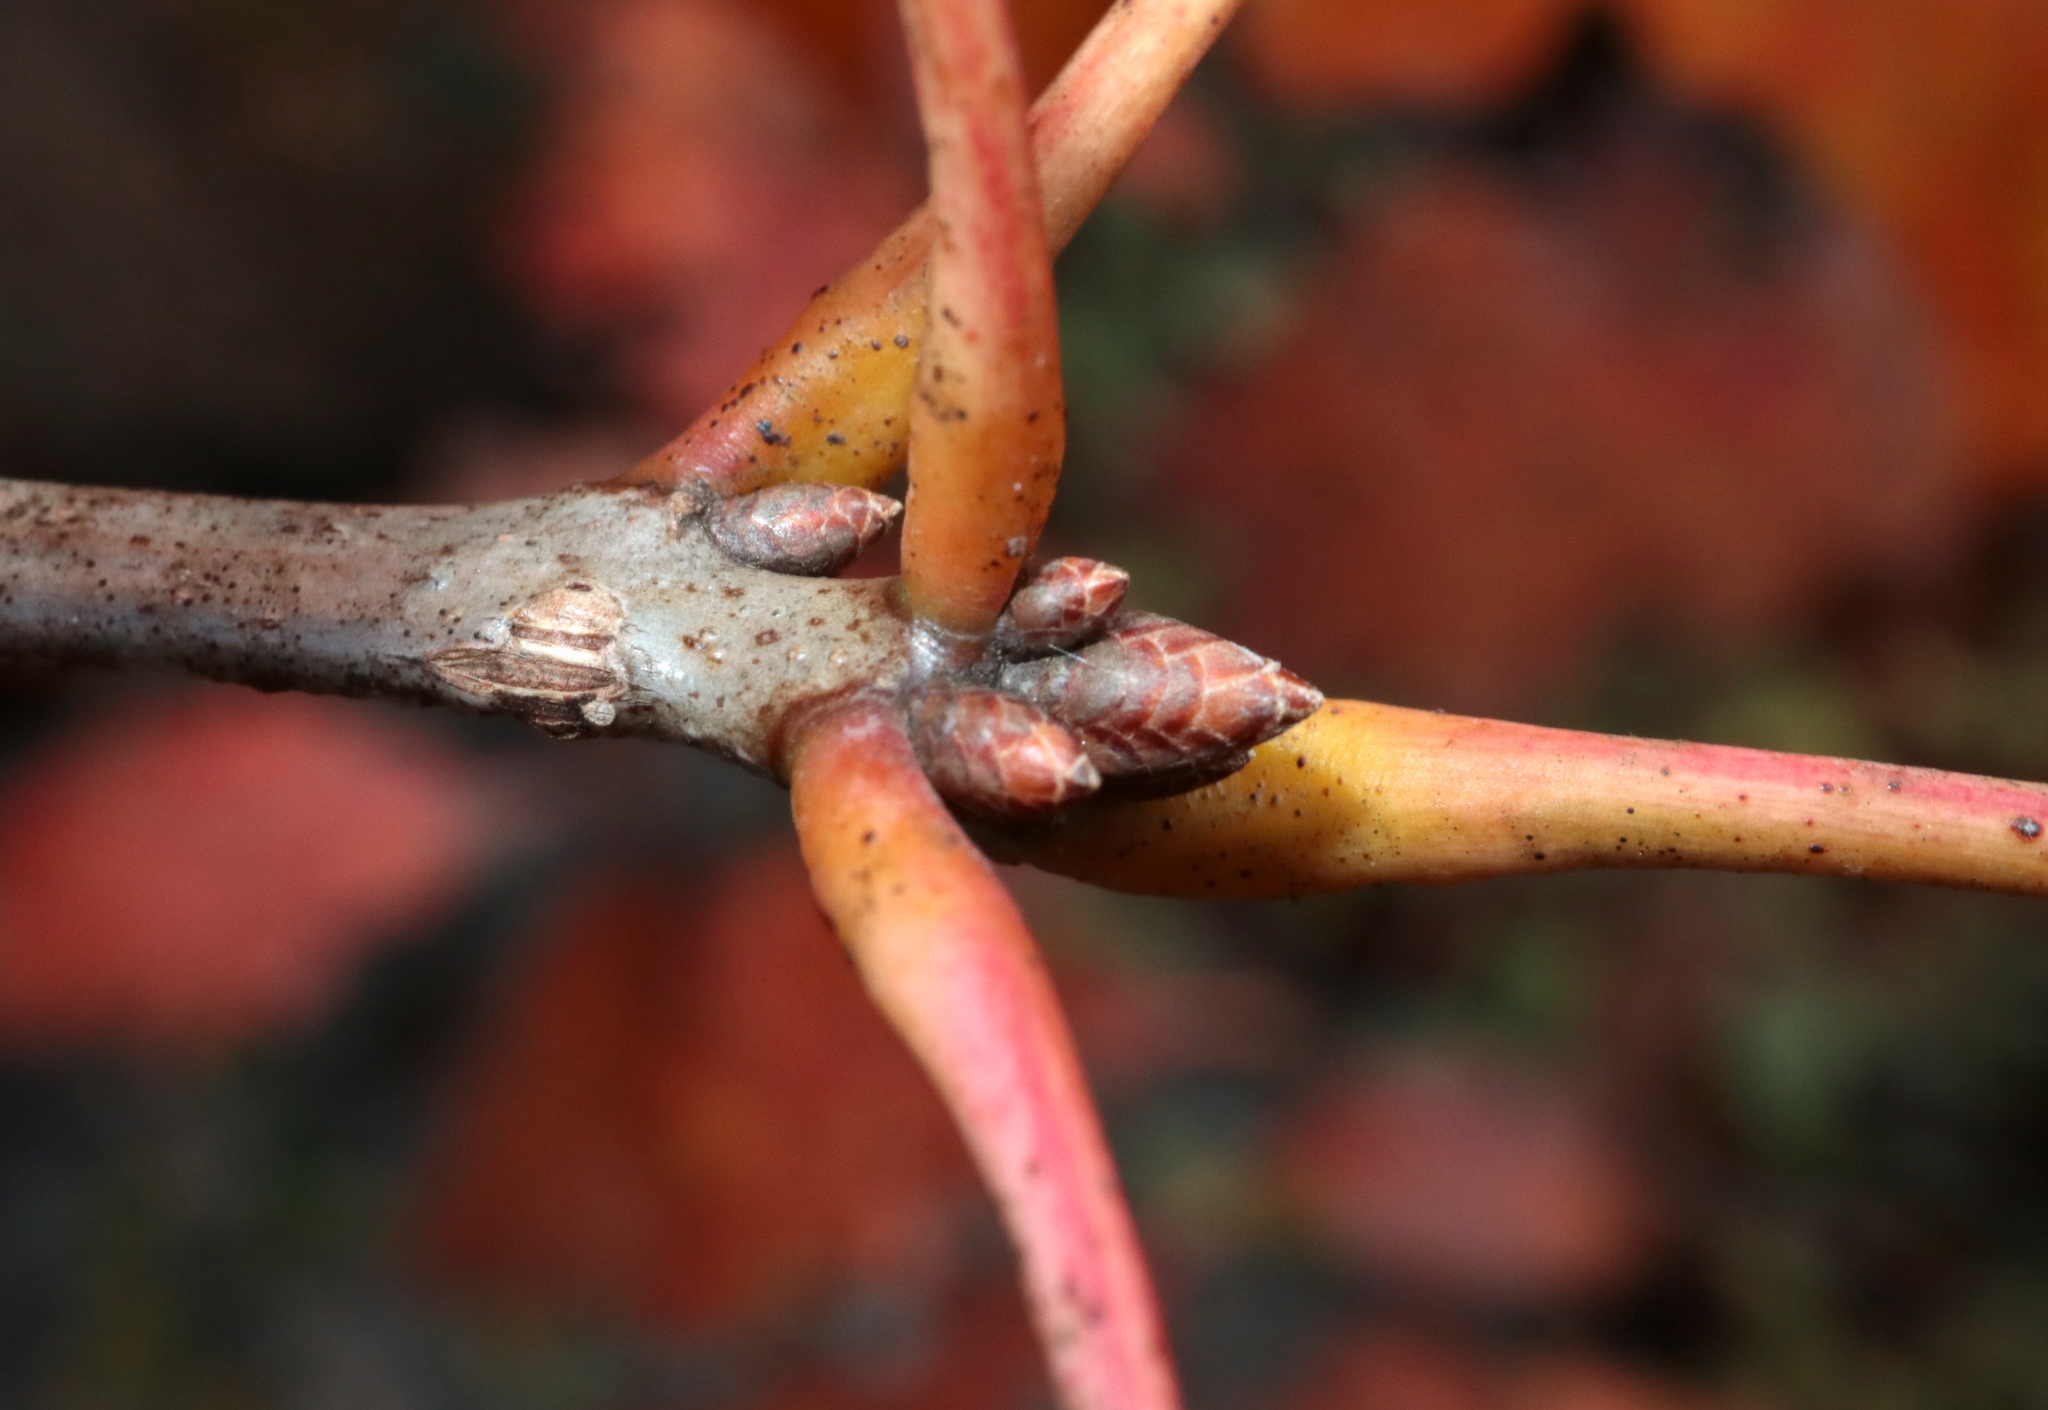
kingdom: Plantae
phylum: Tracheophyta
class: Magnoliopsida
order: Fagales
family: Fagaceae
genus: Quercus
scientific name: Quercus rubra
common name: Red oak
